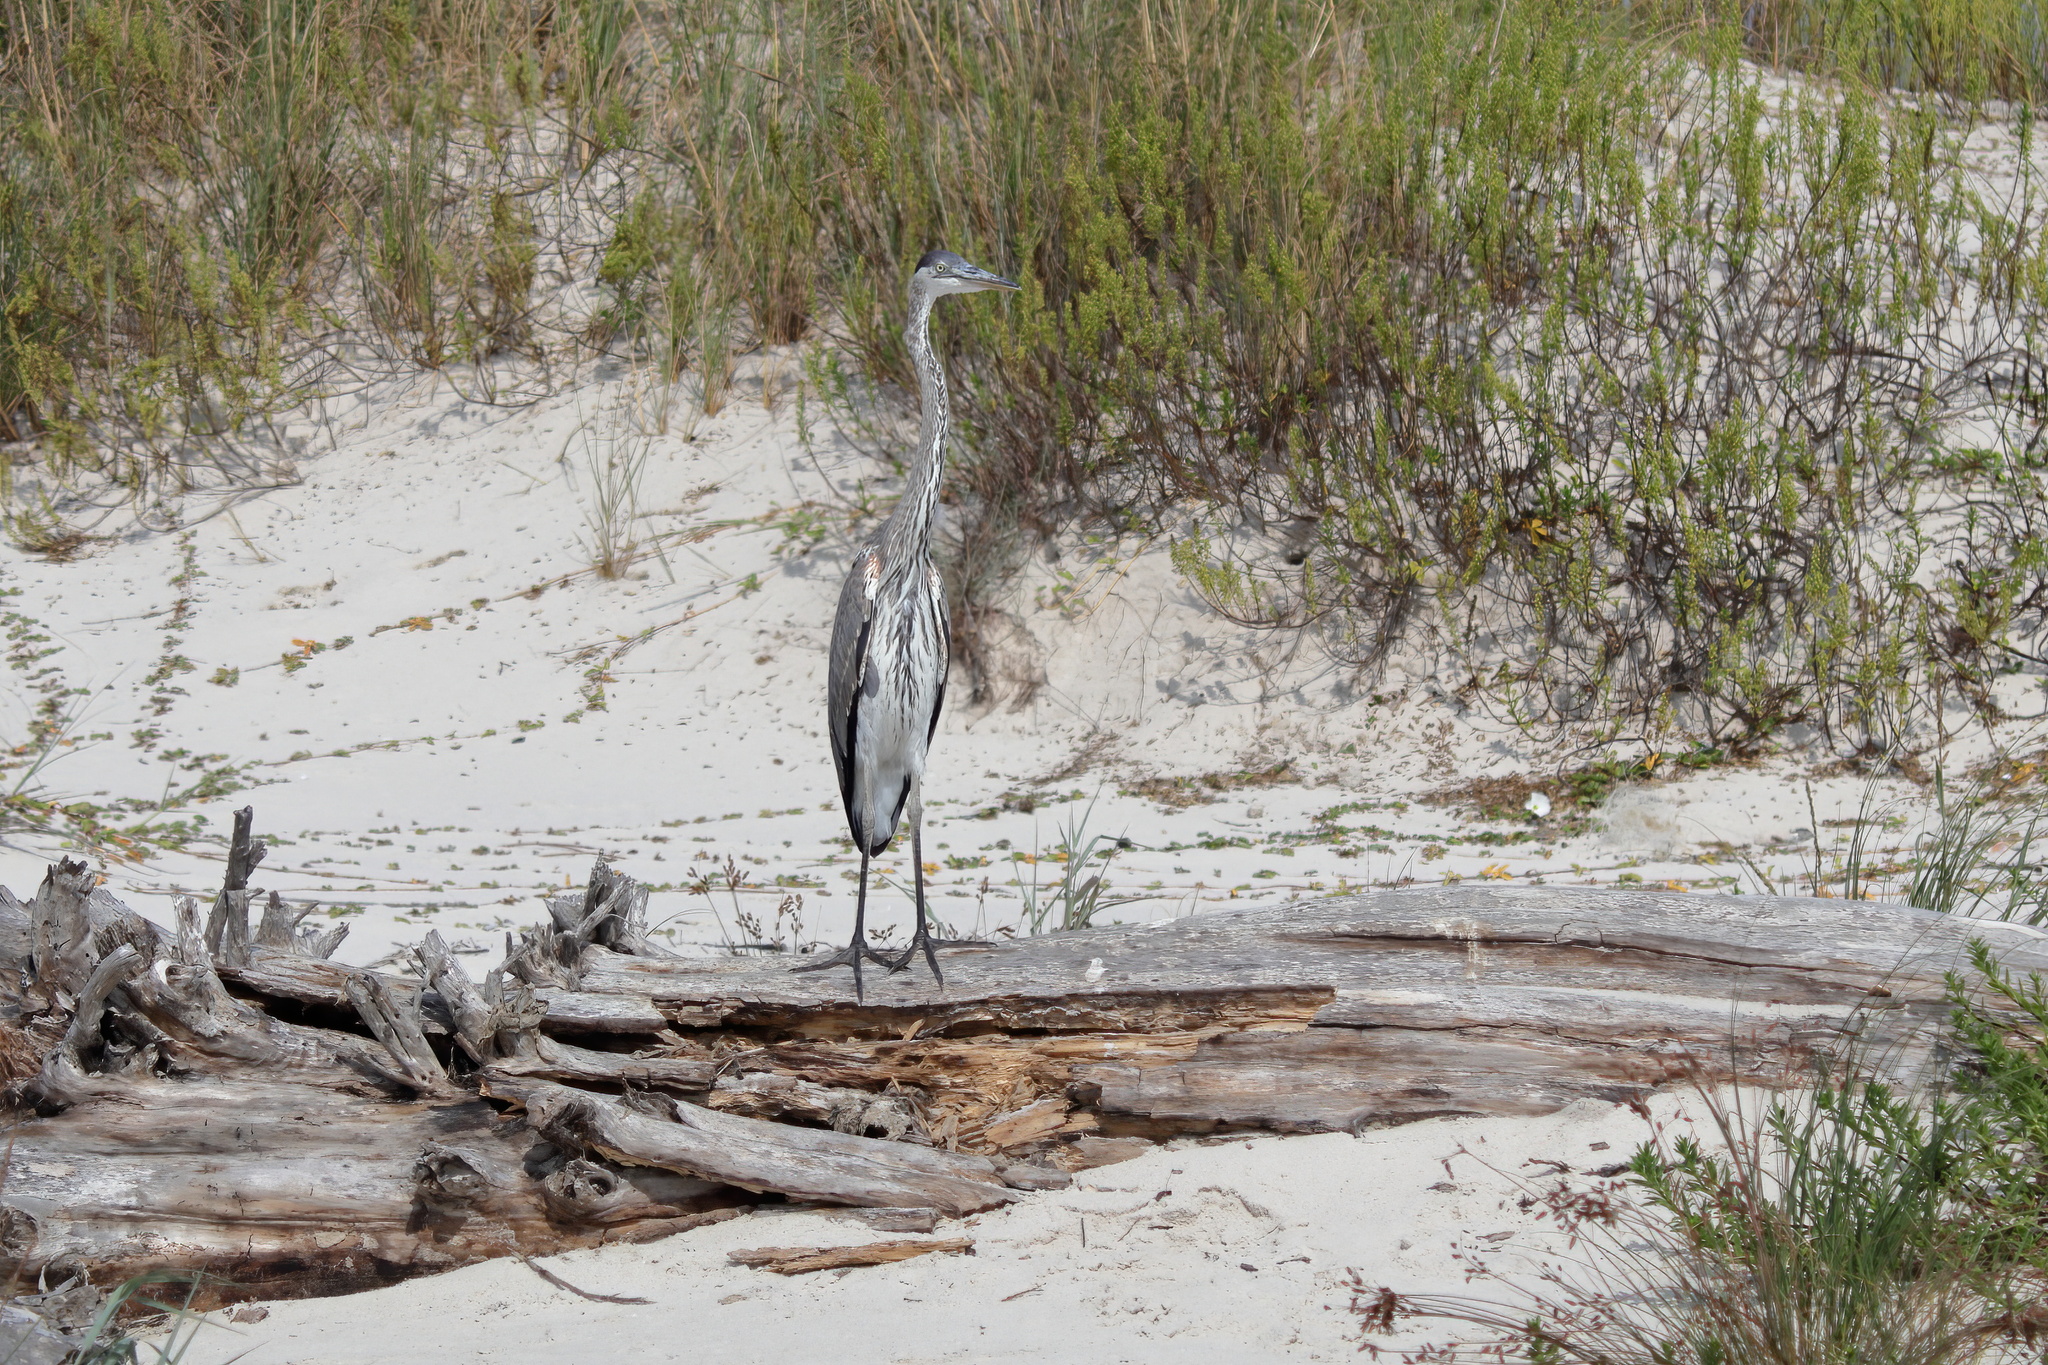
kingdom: Animalia
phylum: Chordata
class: Aves
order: Pelecaniformes
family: Ardeidae
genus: Ardea
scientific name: Ardea herodias
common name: Great blue heron
